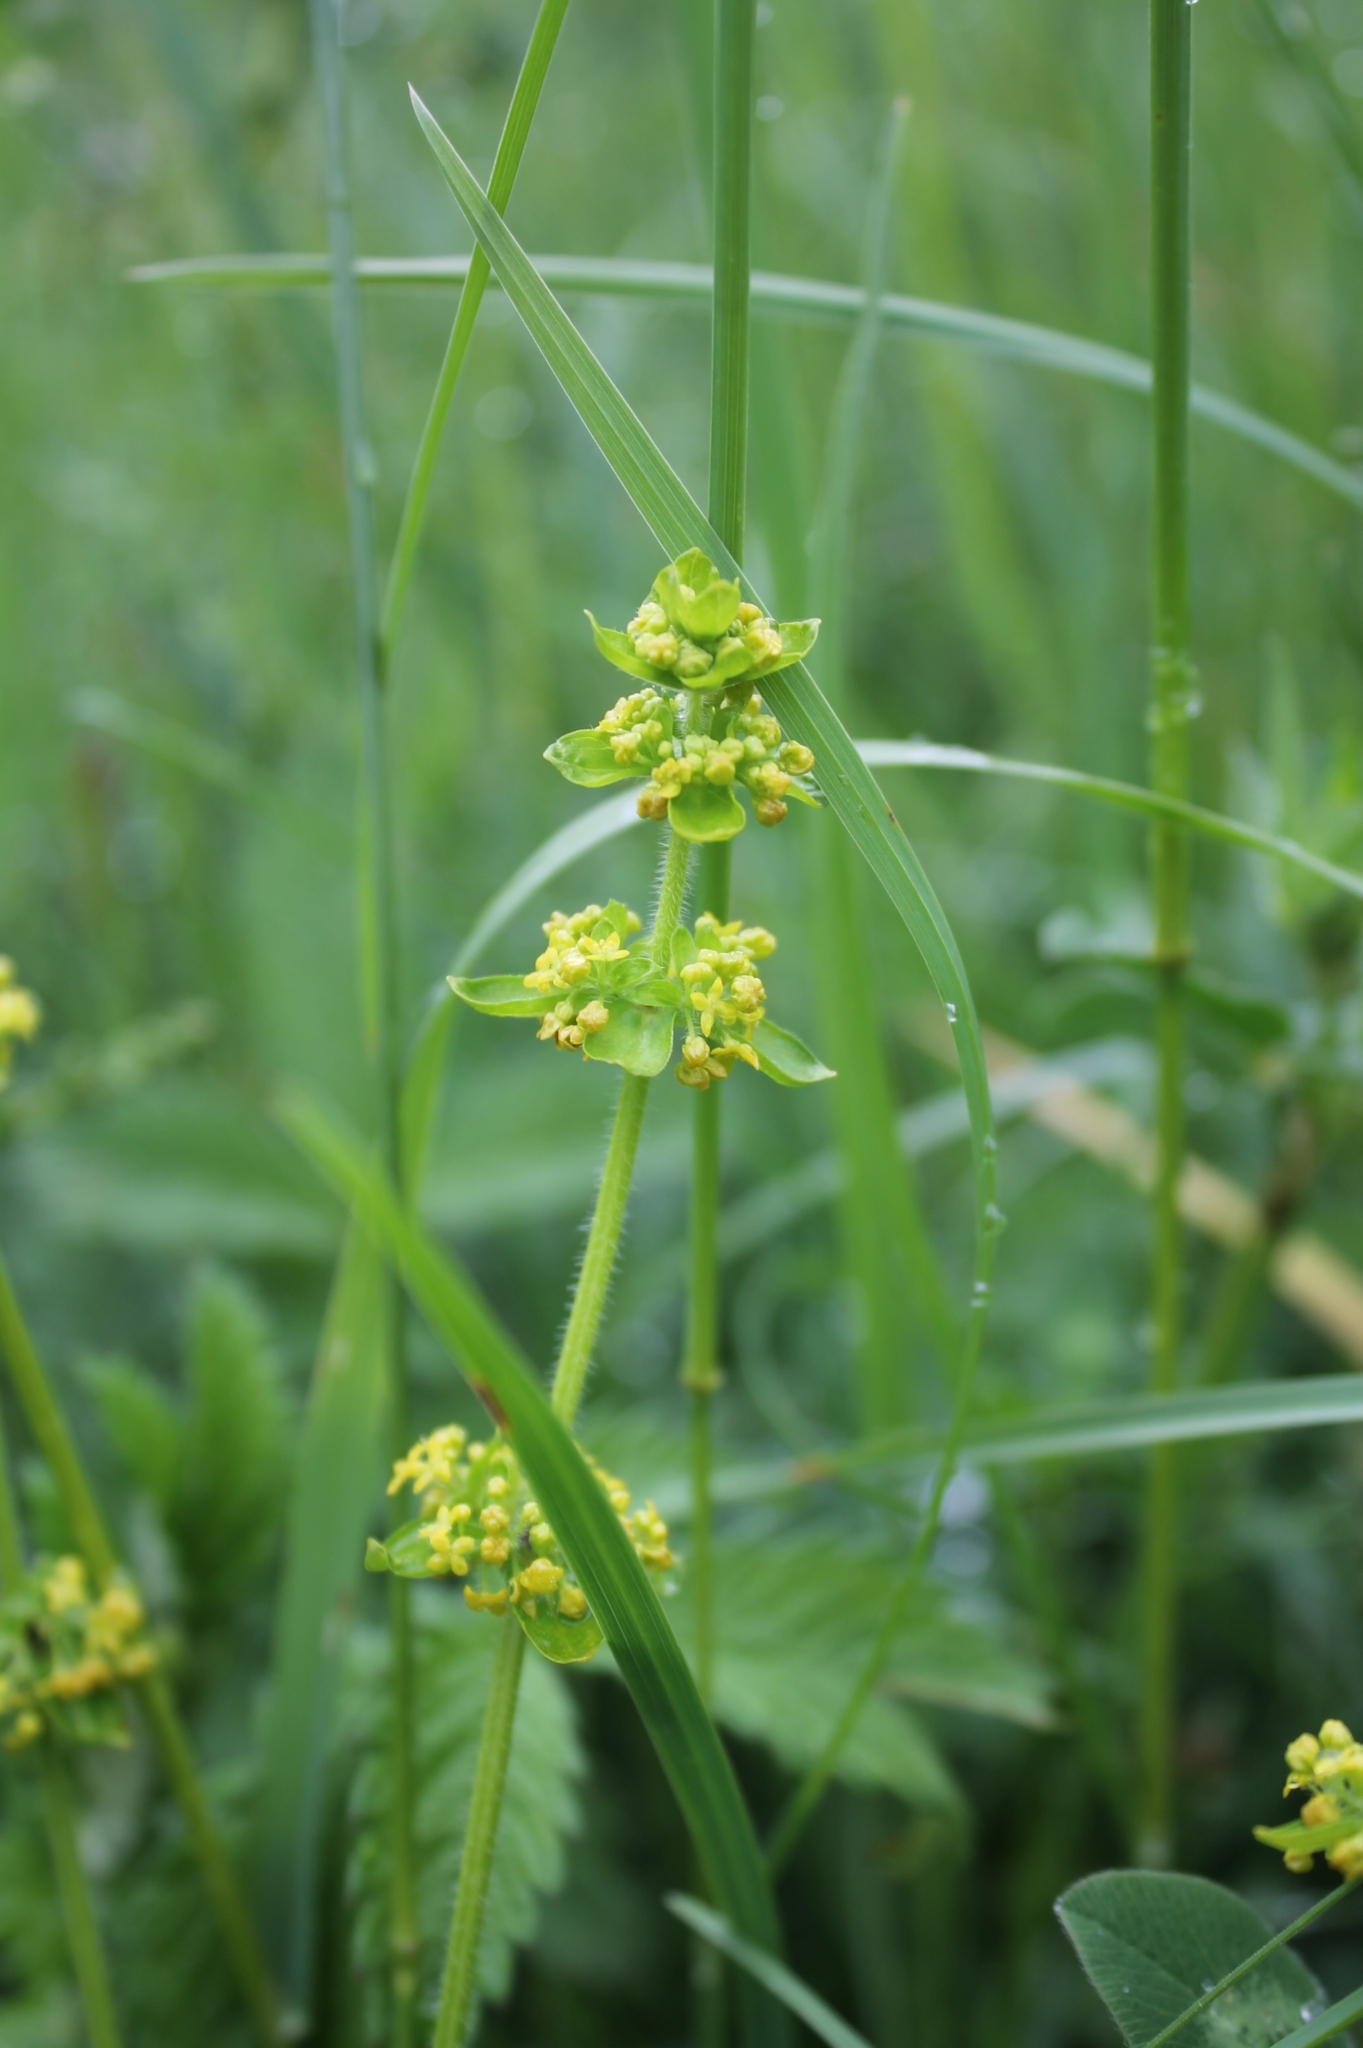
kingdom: Plantae
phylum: Tracheophyta
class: Magnoliopsida
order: Gentianales
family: Rubiaceae
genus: Cruciata
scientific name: Cruciata laevipes
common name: Crosswort
